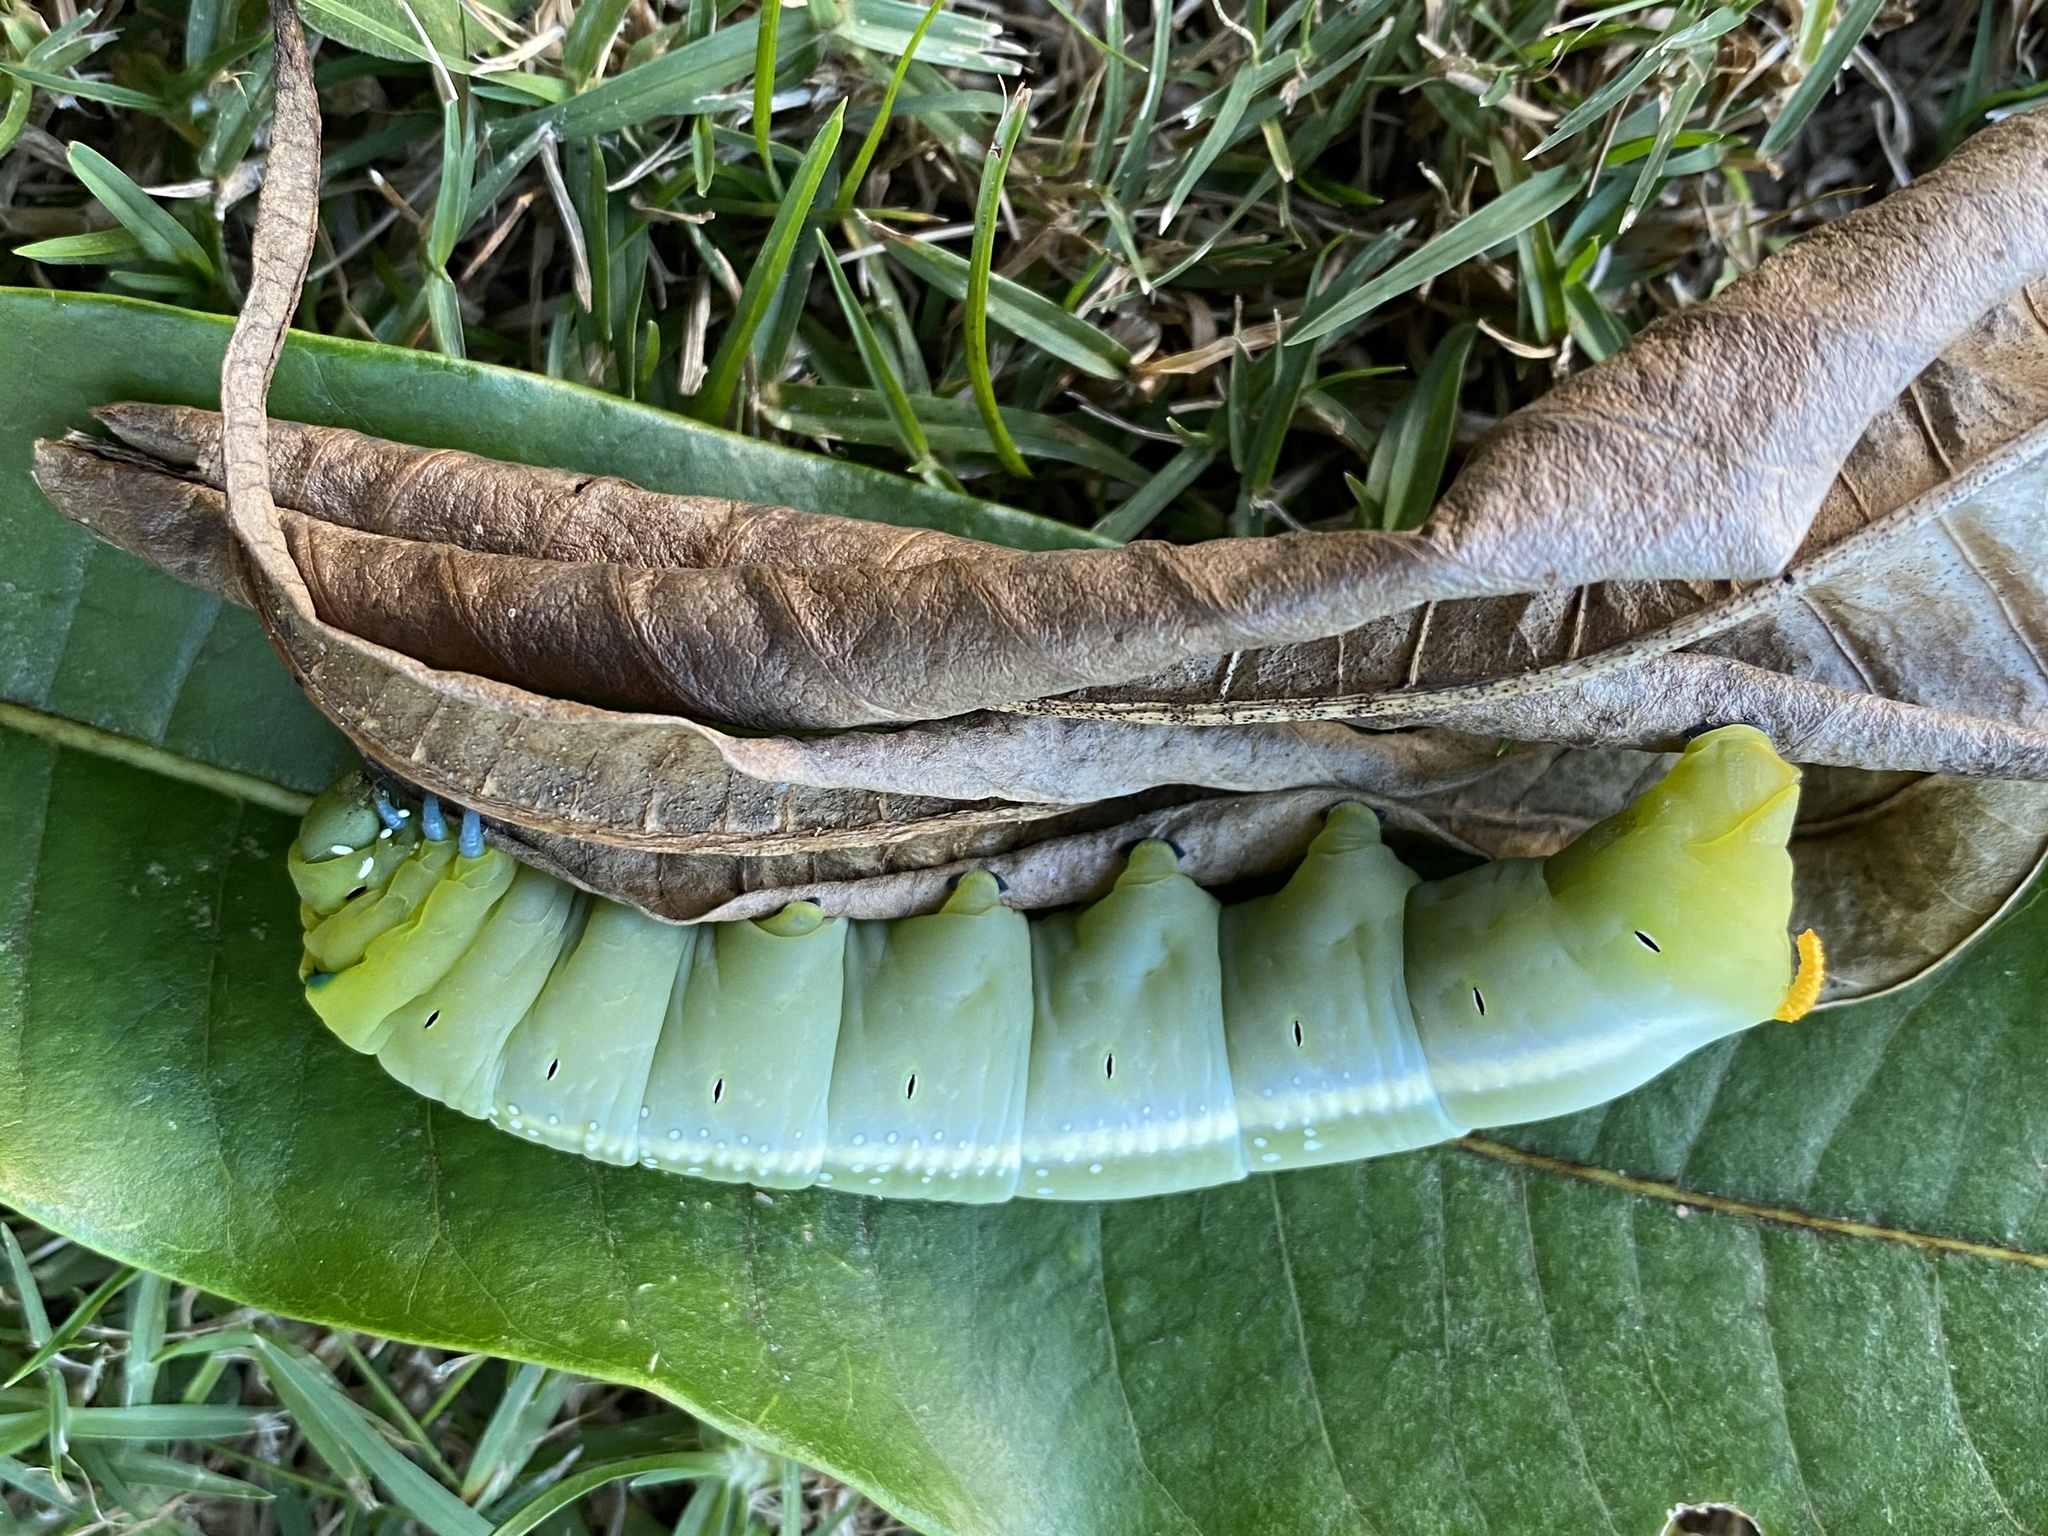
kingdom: Animalia
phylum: Arthropoda
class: Insecta
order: Lepidoptera
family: Sphingidae
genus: Daphnis
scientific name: Daphnis nerii
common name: Oleander hawk-moth
